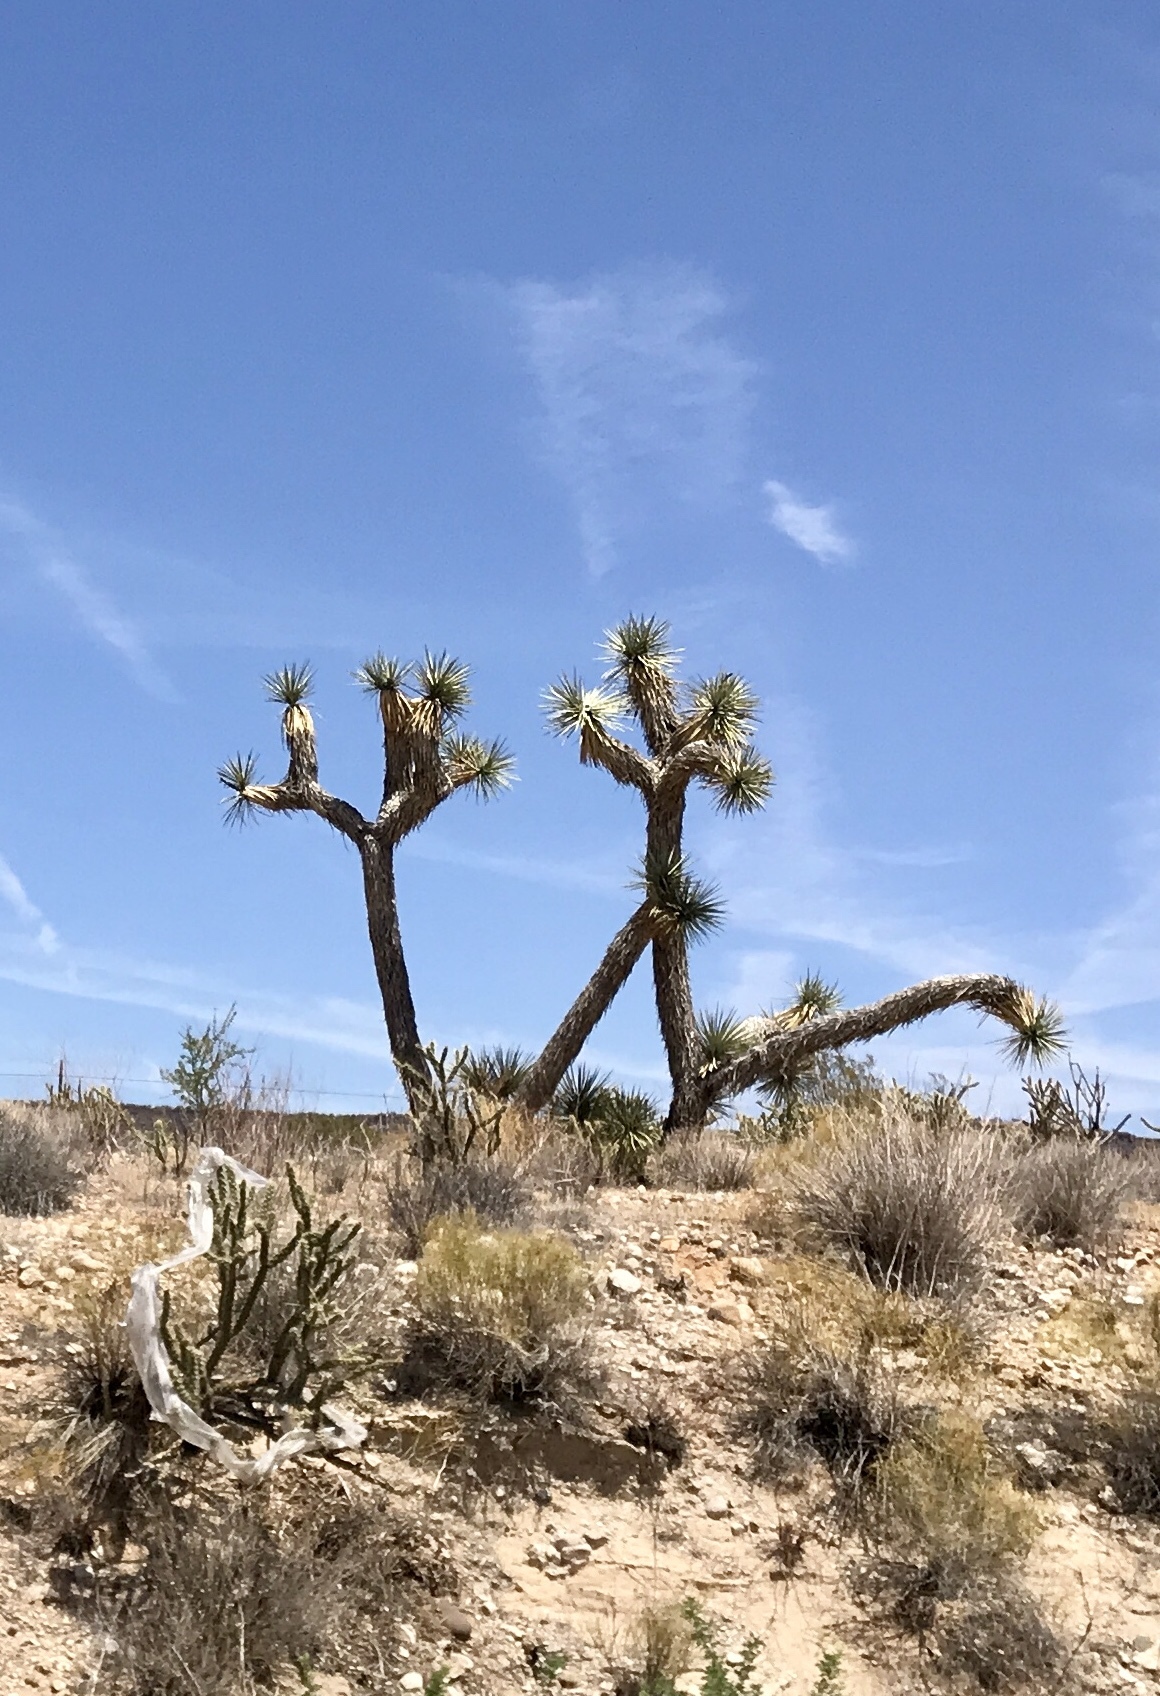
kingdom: Plantae
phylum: Tracheophyta
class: Liliopsida
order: Asparagales
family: Asparagaceae
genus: Yucca
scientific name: Yucca brevifolia
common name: Joshua tree
